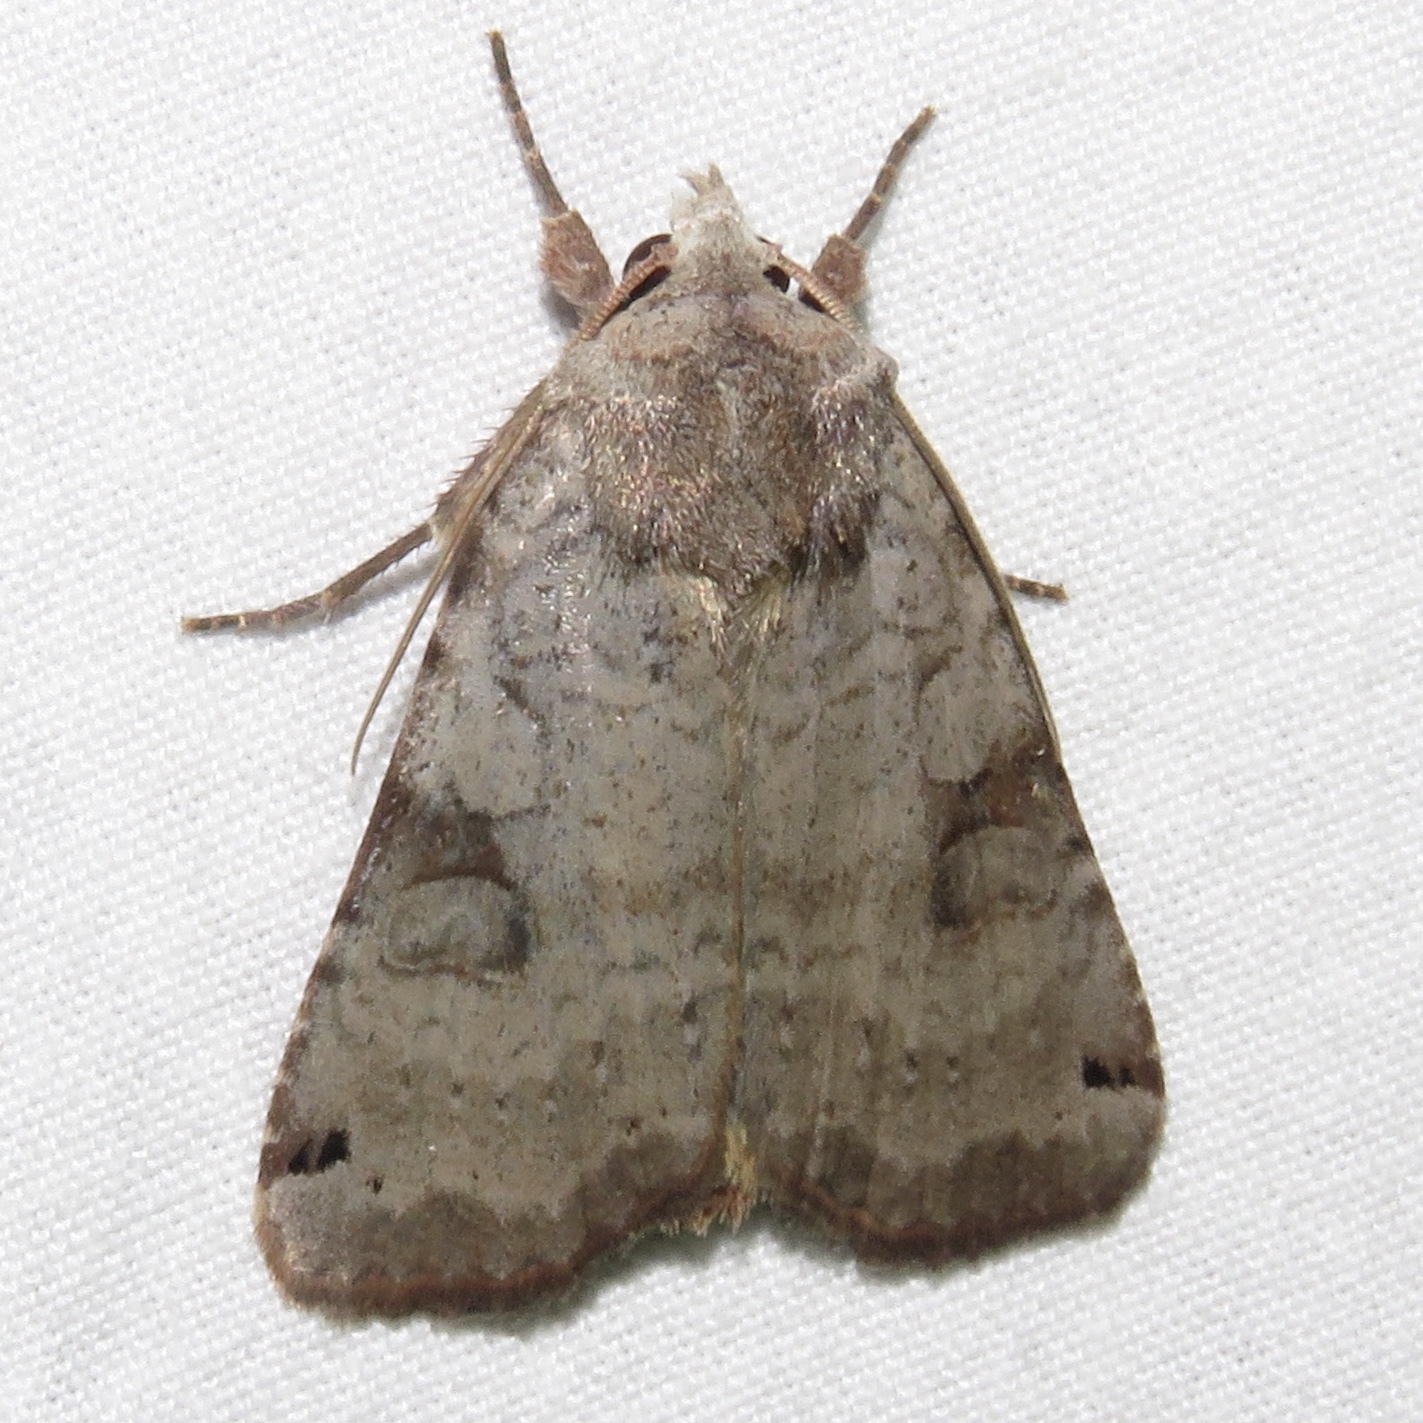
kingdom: Animalia
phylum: Arthropoda
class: Insecta
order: Lepidoptera
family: Noctuidae
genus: Xestia
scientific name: Xestia smithii
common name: Smith's dart
